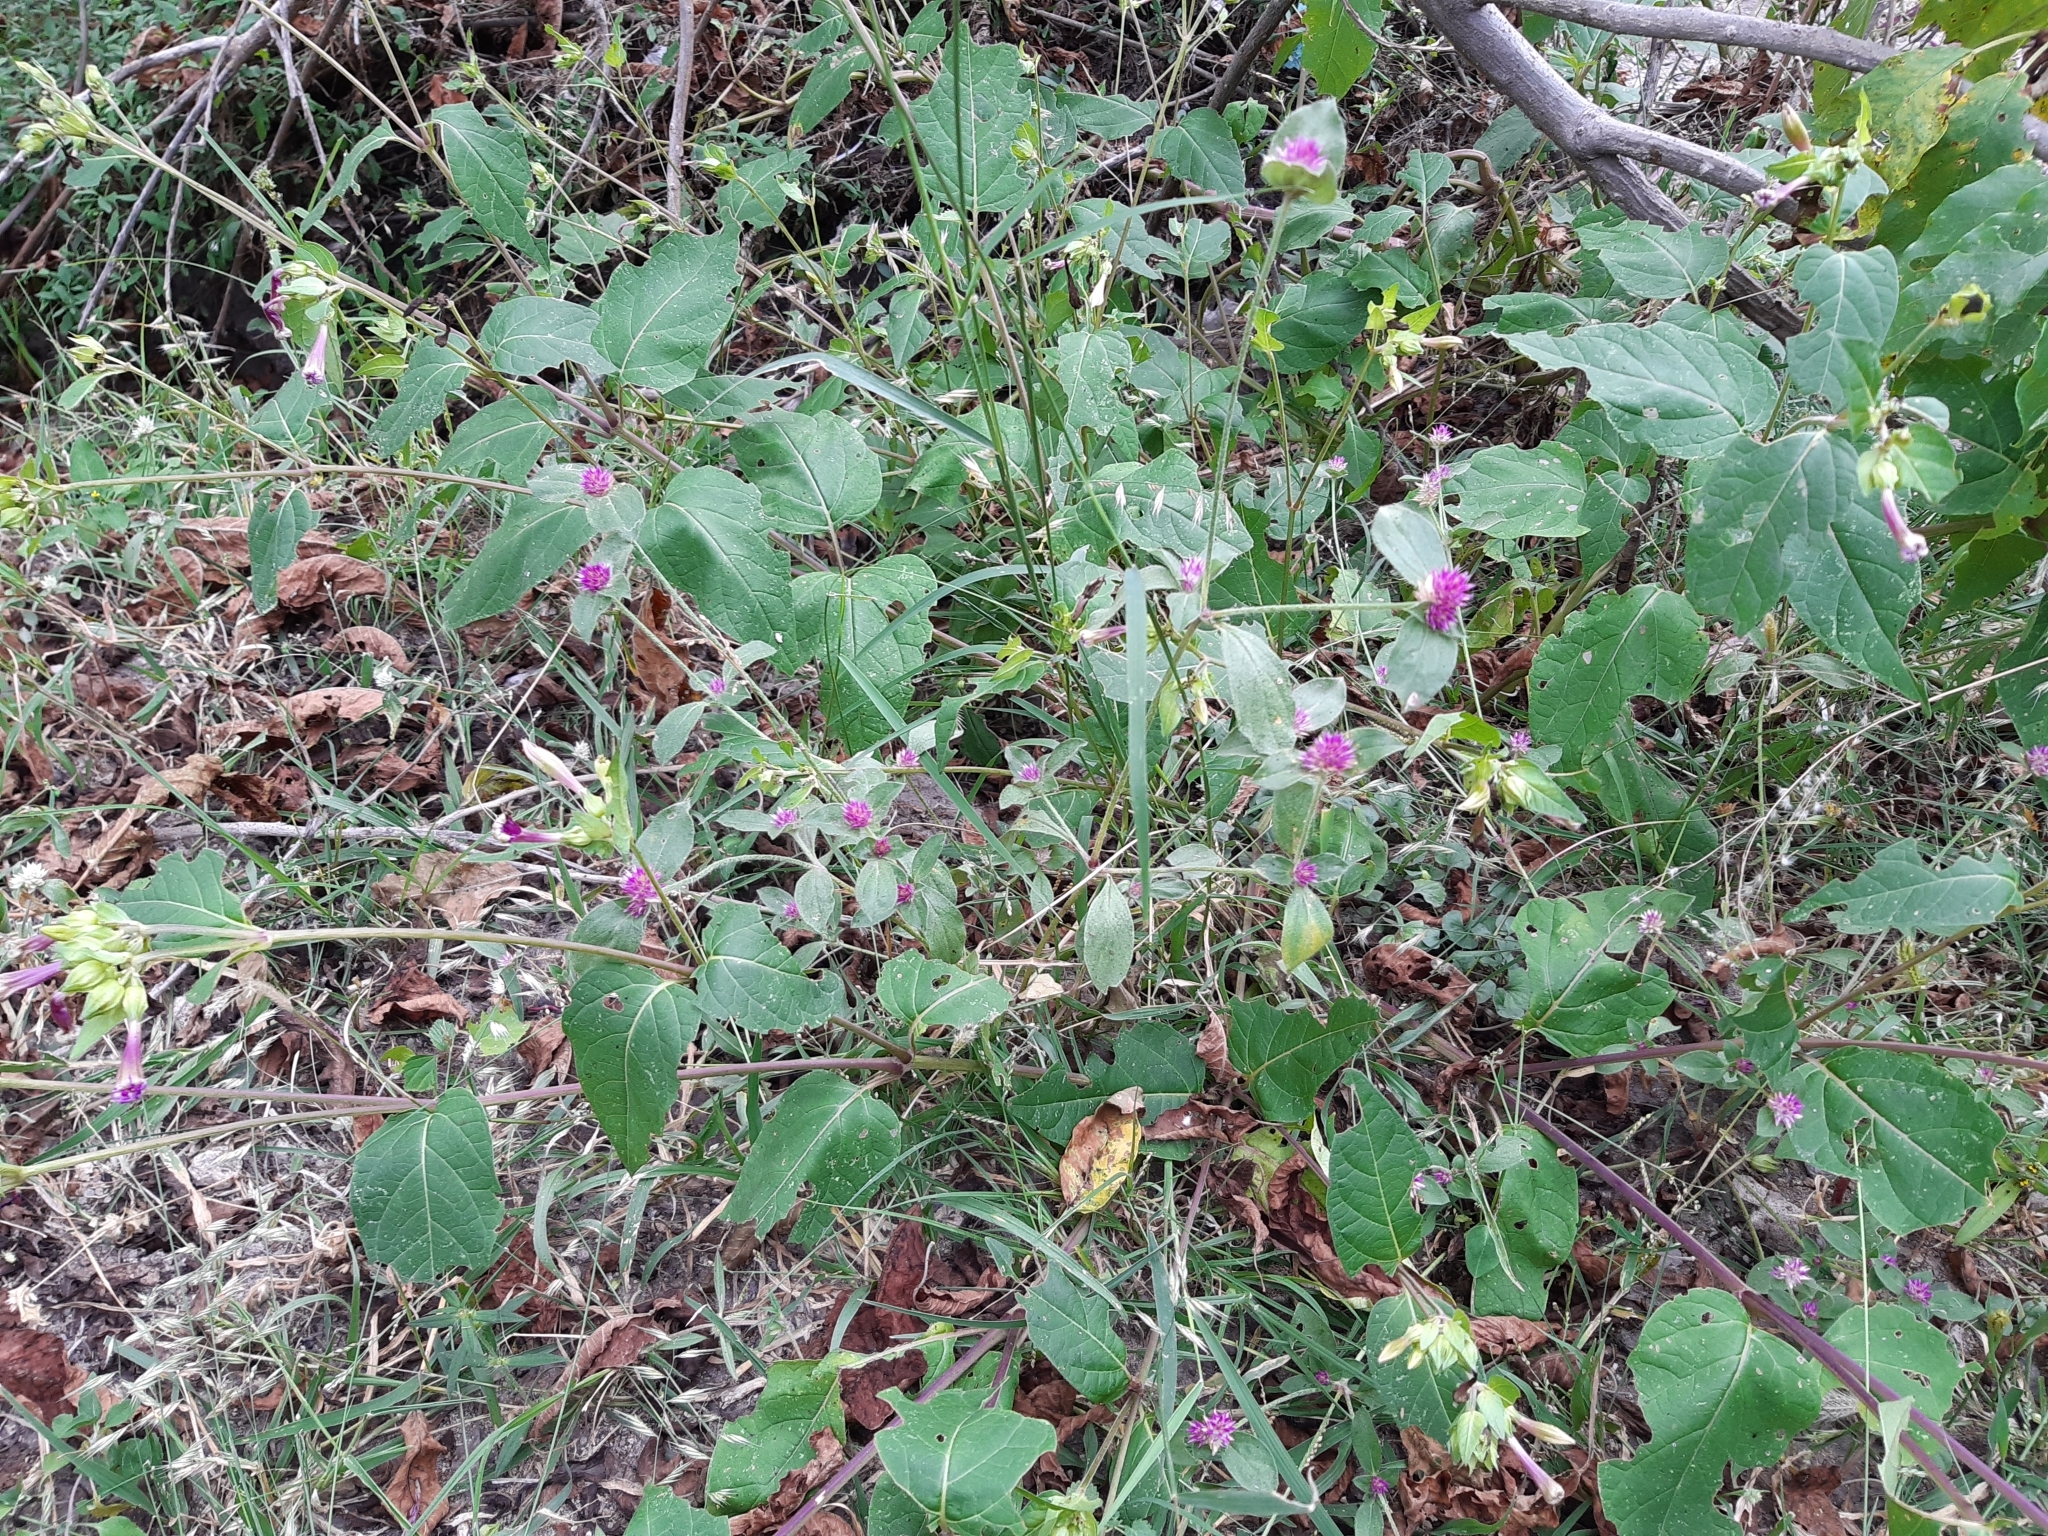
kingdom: Plantae
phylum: Tracheophyta
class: Magnoliopsida
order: Caryophyllales
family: Amaranthaceae
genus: Gomphrena
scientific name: Gomphrena nitida
